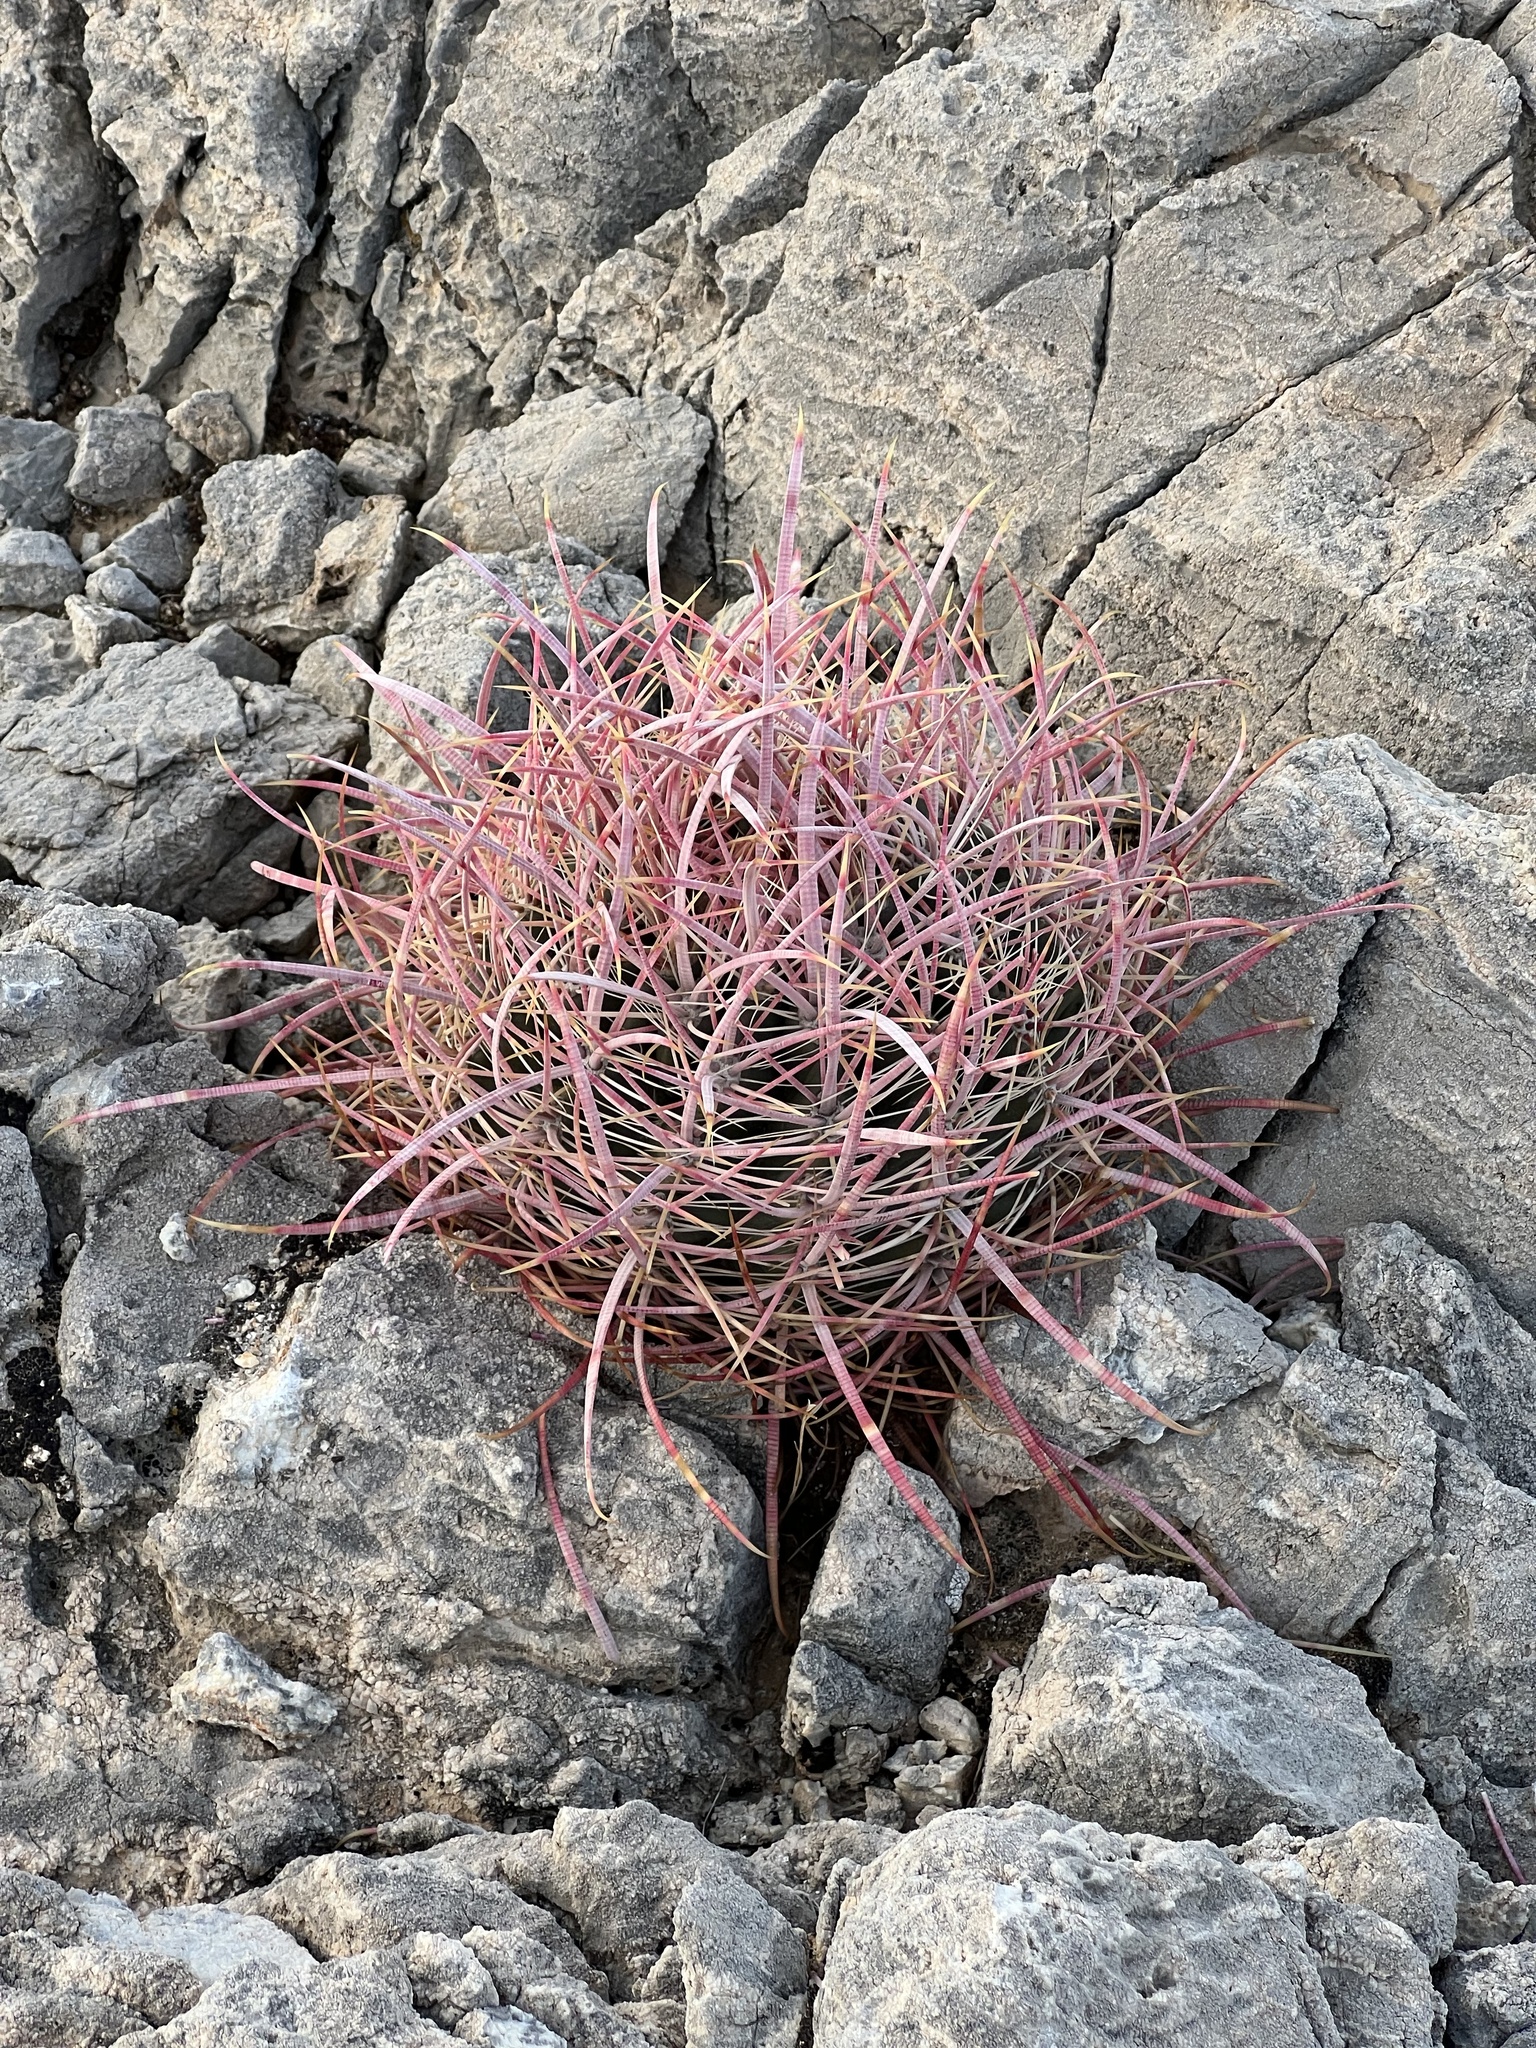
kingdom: Plantae
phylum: Tracheophyta
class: Magnoliopsida
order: Caryophyllales
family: Cactaceae
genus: Ferocactus
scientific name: Ferocactus cylindraceus
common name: California barrel cactus
